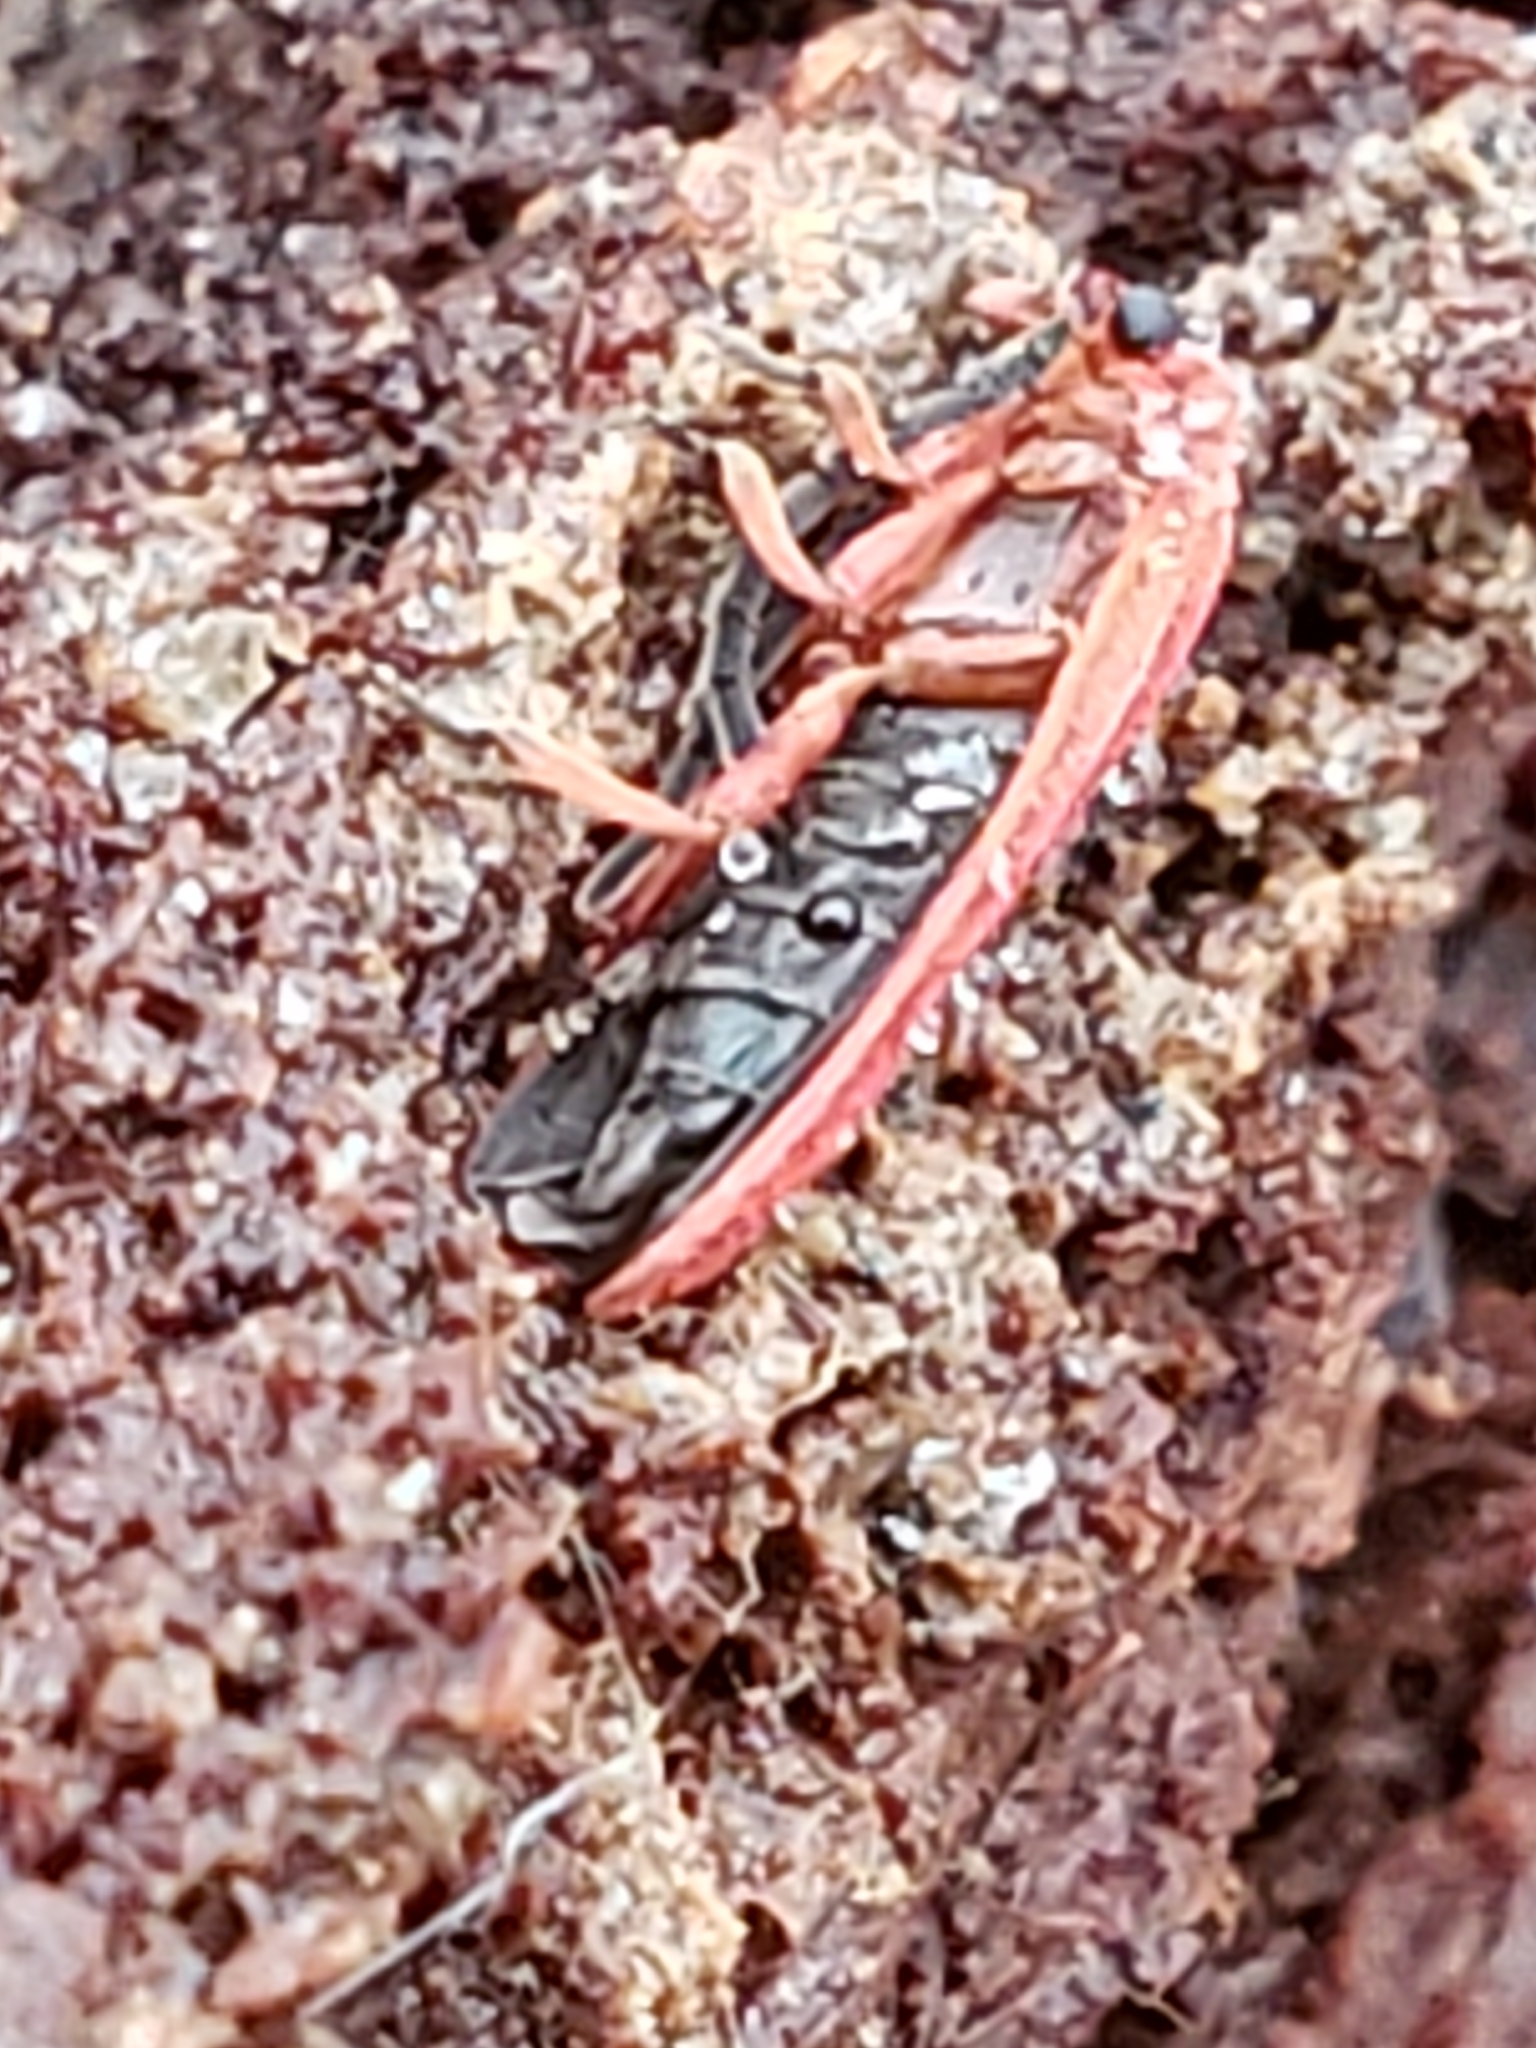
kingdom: Animalia
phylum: Arthropoda
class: Insecta
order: Coleoptera
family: Lycidae
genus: Punicealis
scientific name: Punicealis
